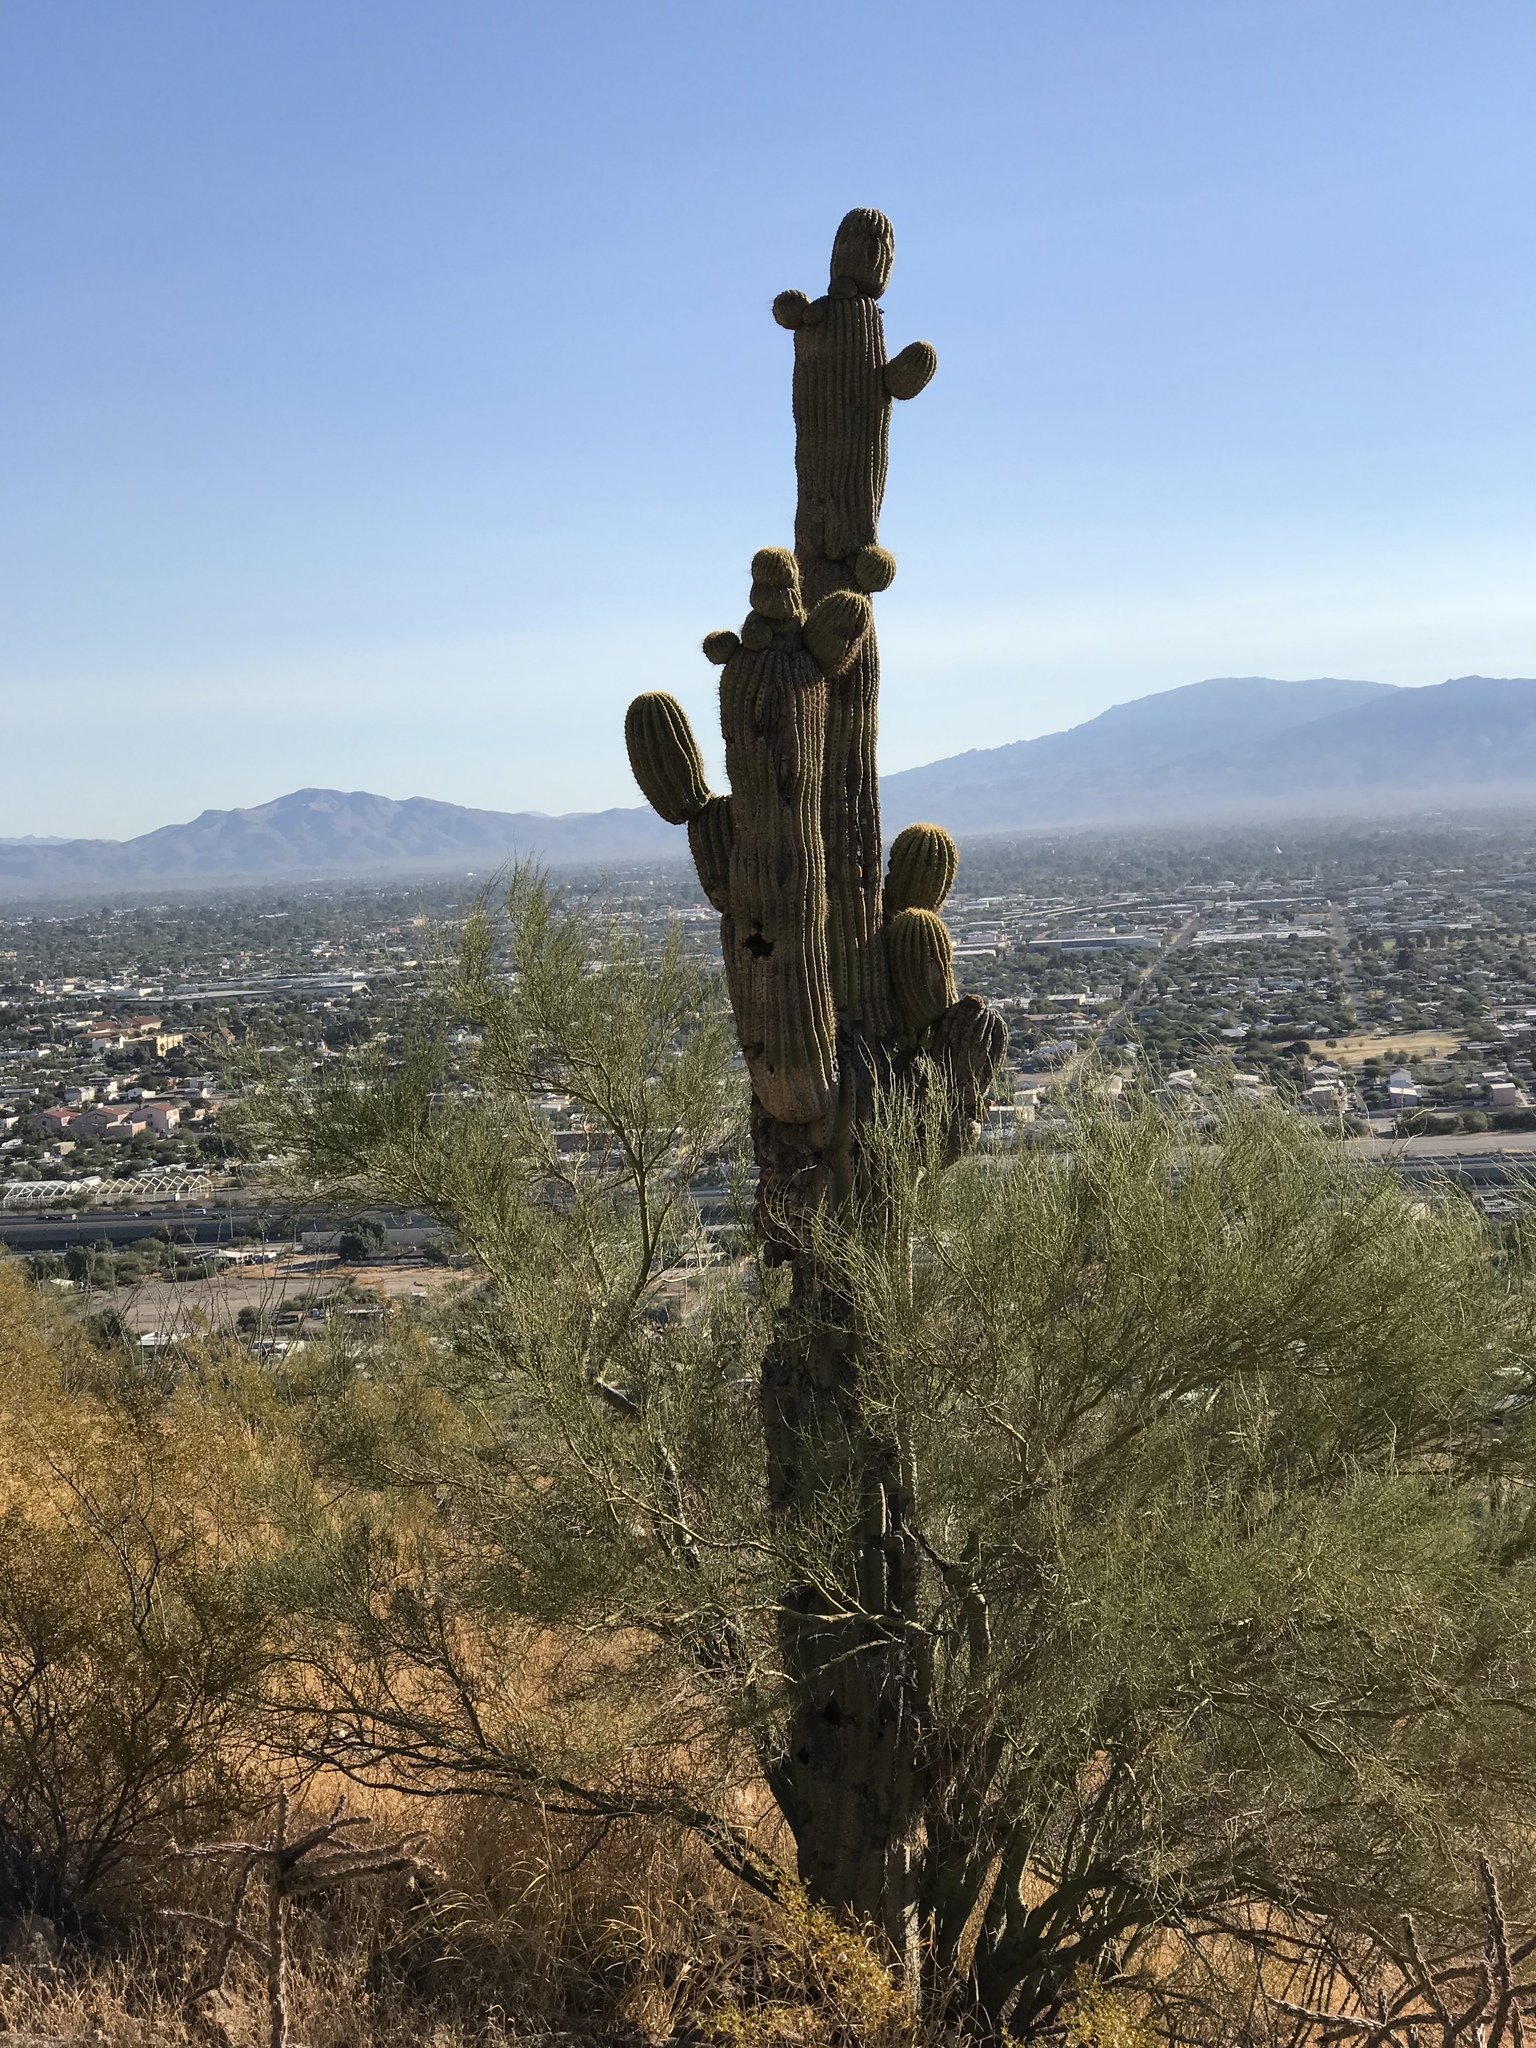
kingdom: Plantae
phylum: Tracheophyta
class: Magnoliopsida
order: Caryophyllales
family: Cactaceae
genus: Carnegiea
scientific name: Carnegiea gigantea
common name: Saguaro
